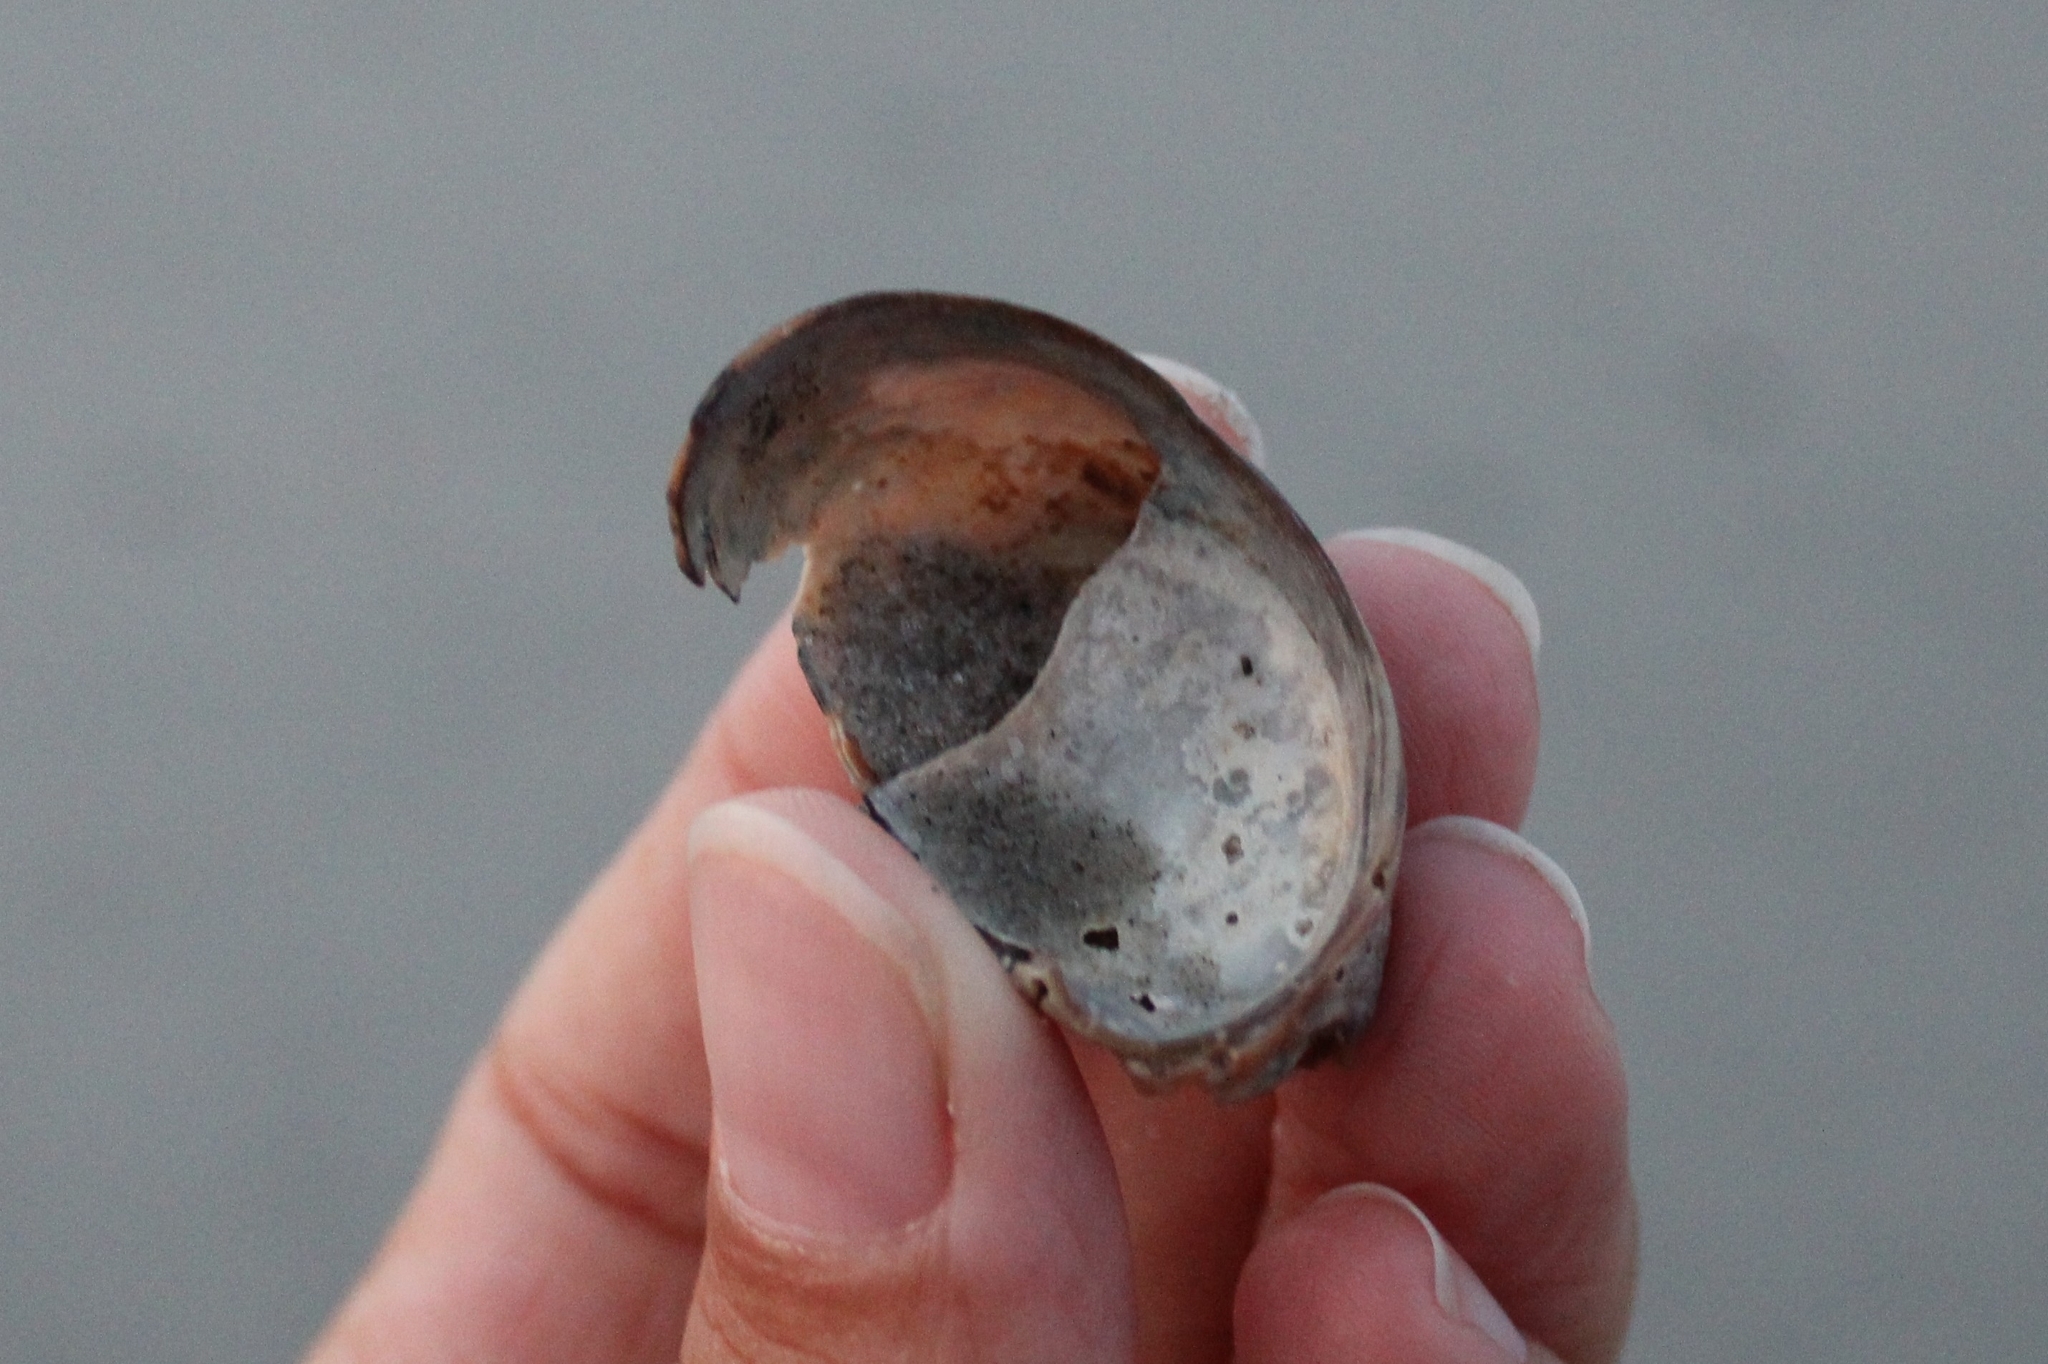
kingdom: Animalia
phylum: Mollusca
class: Gastropoda
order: Littorinimorpha
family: Calyptraeidae
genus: Crepidula
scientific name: Crepidula fornicata
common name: Slipper limpet
